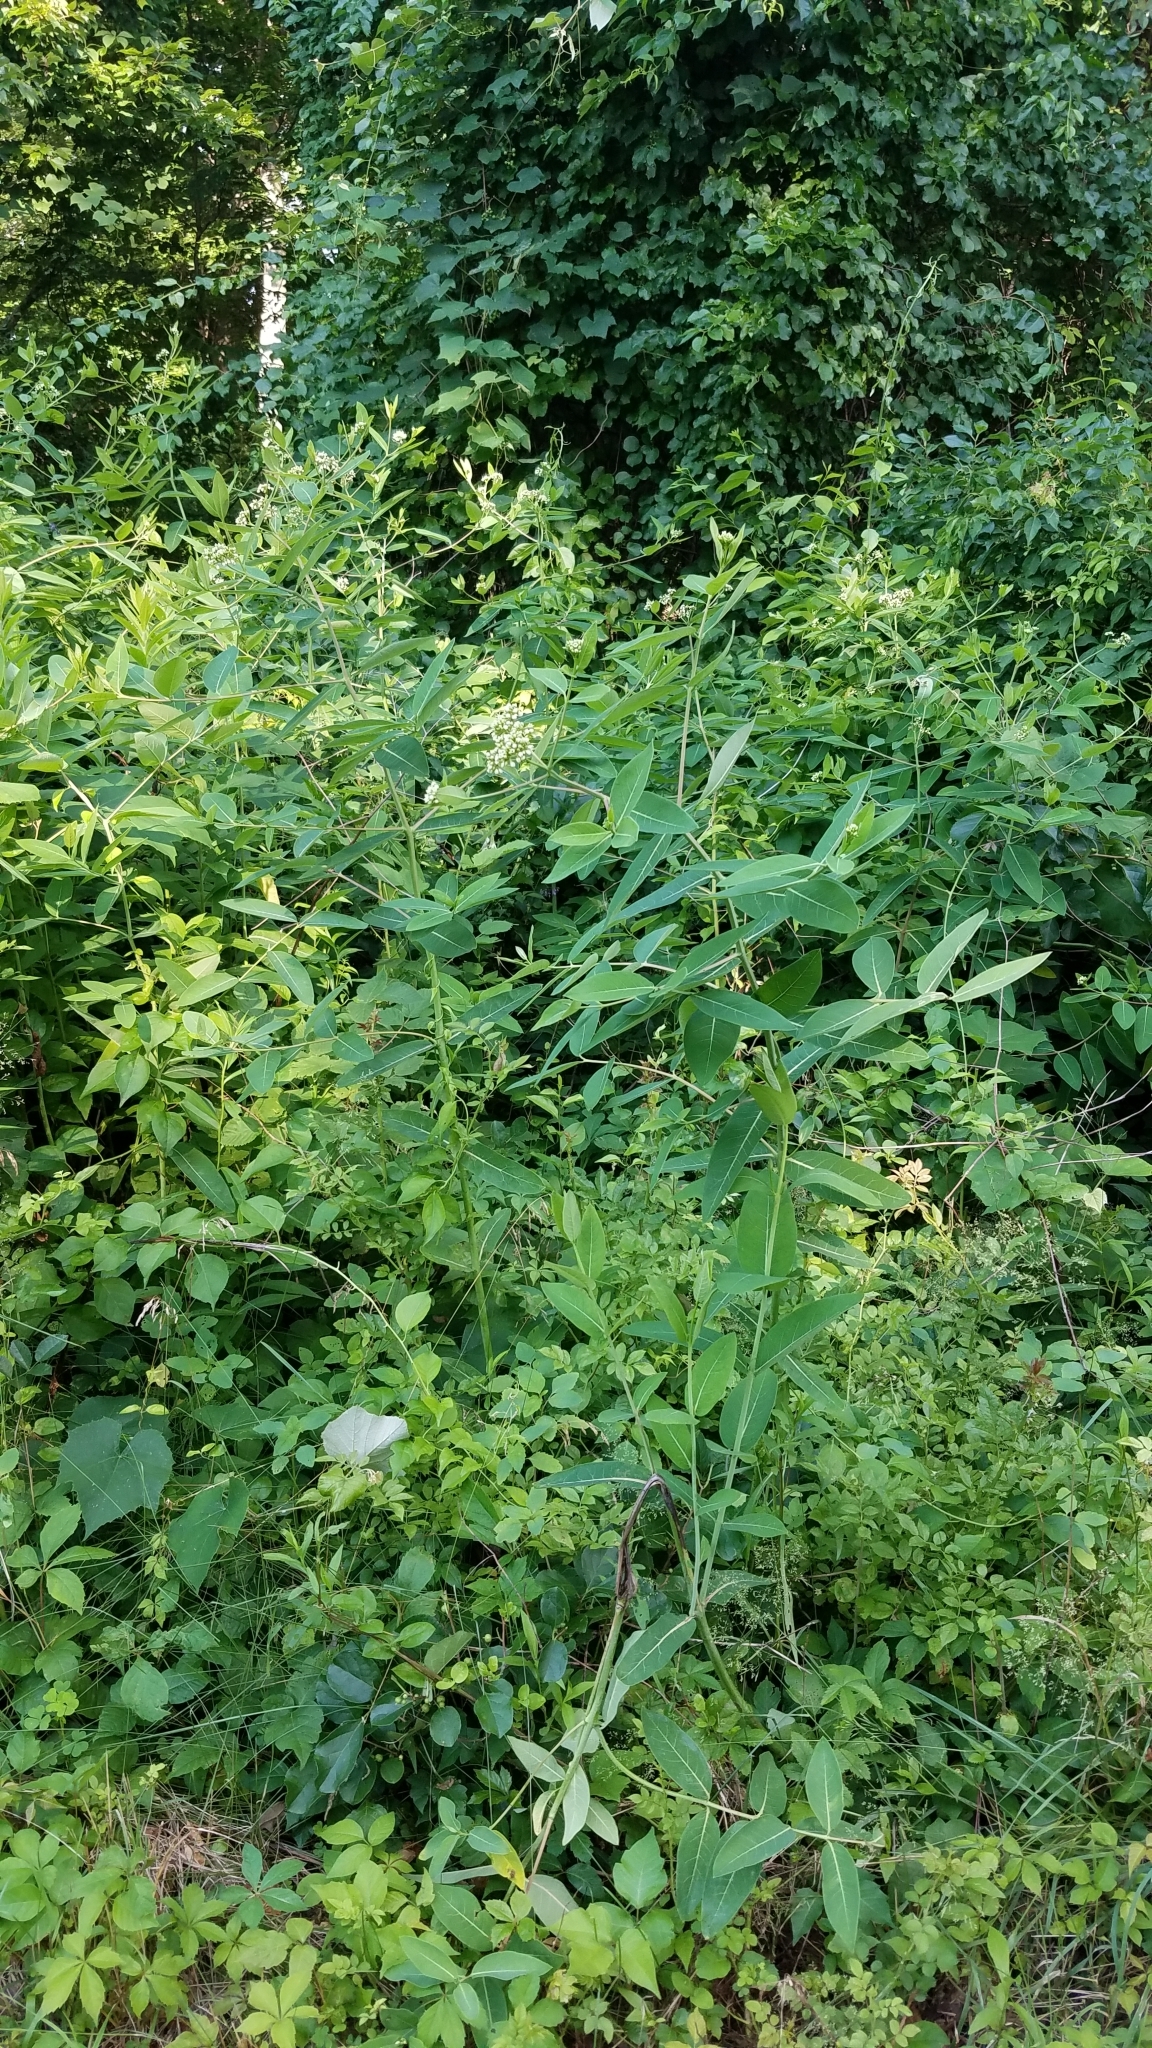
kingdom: Plantae
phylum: Tracheophyta
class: Magnoliopsida
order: Gentianales
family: Apocynaceae
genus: Apocynum
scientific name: Apocynum cannabinum
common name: Hemp dogbane
